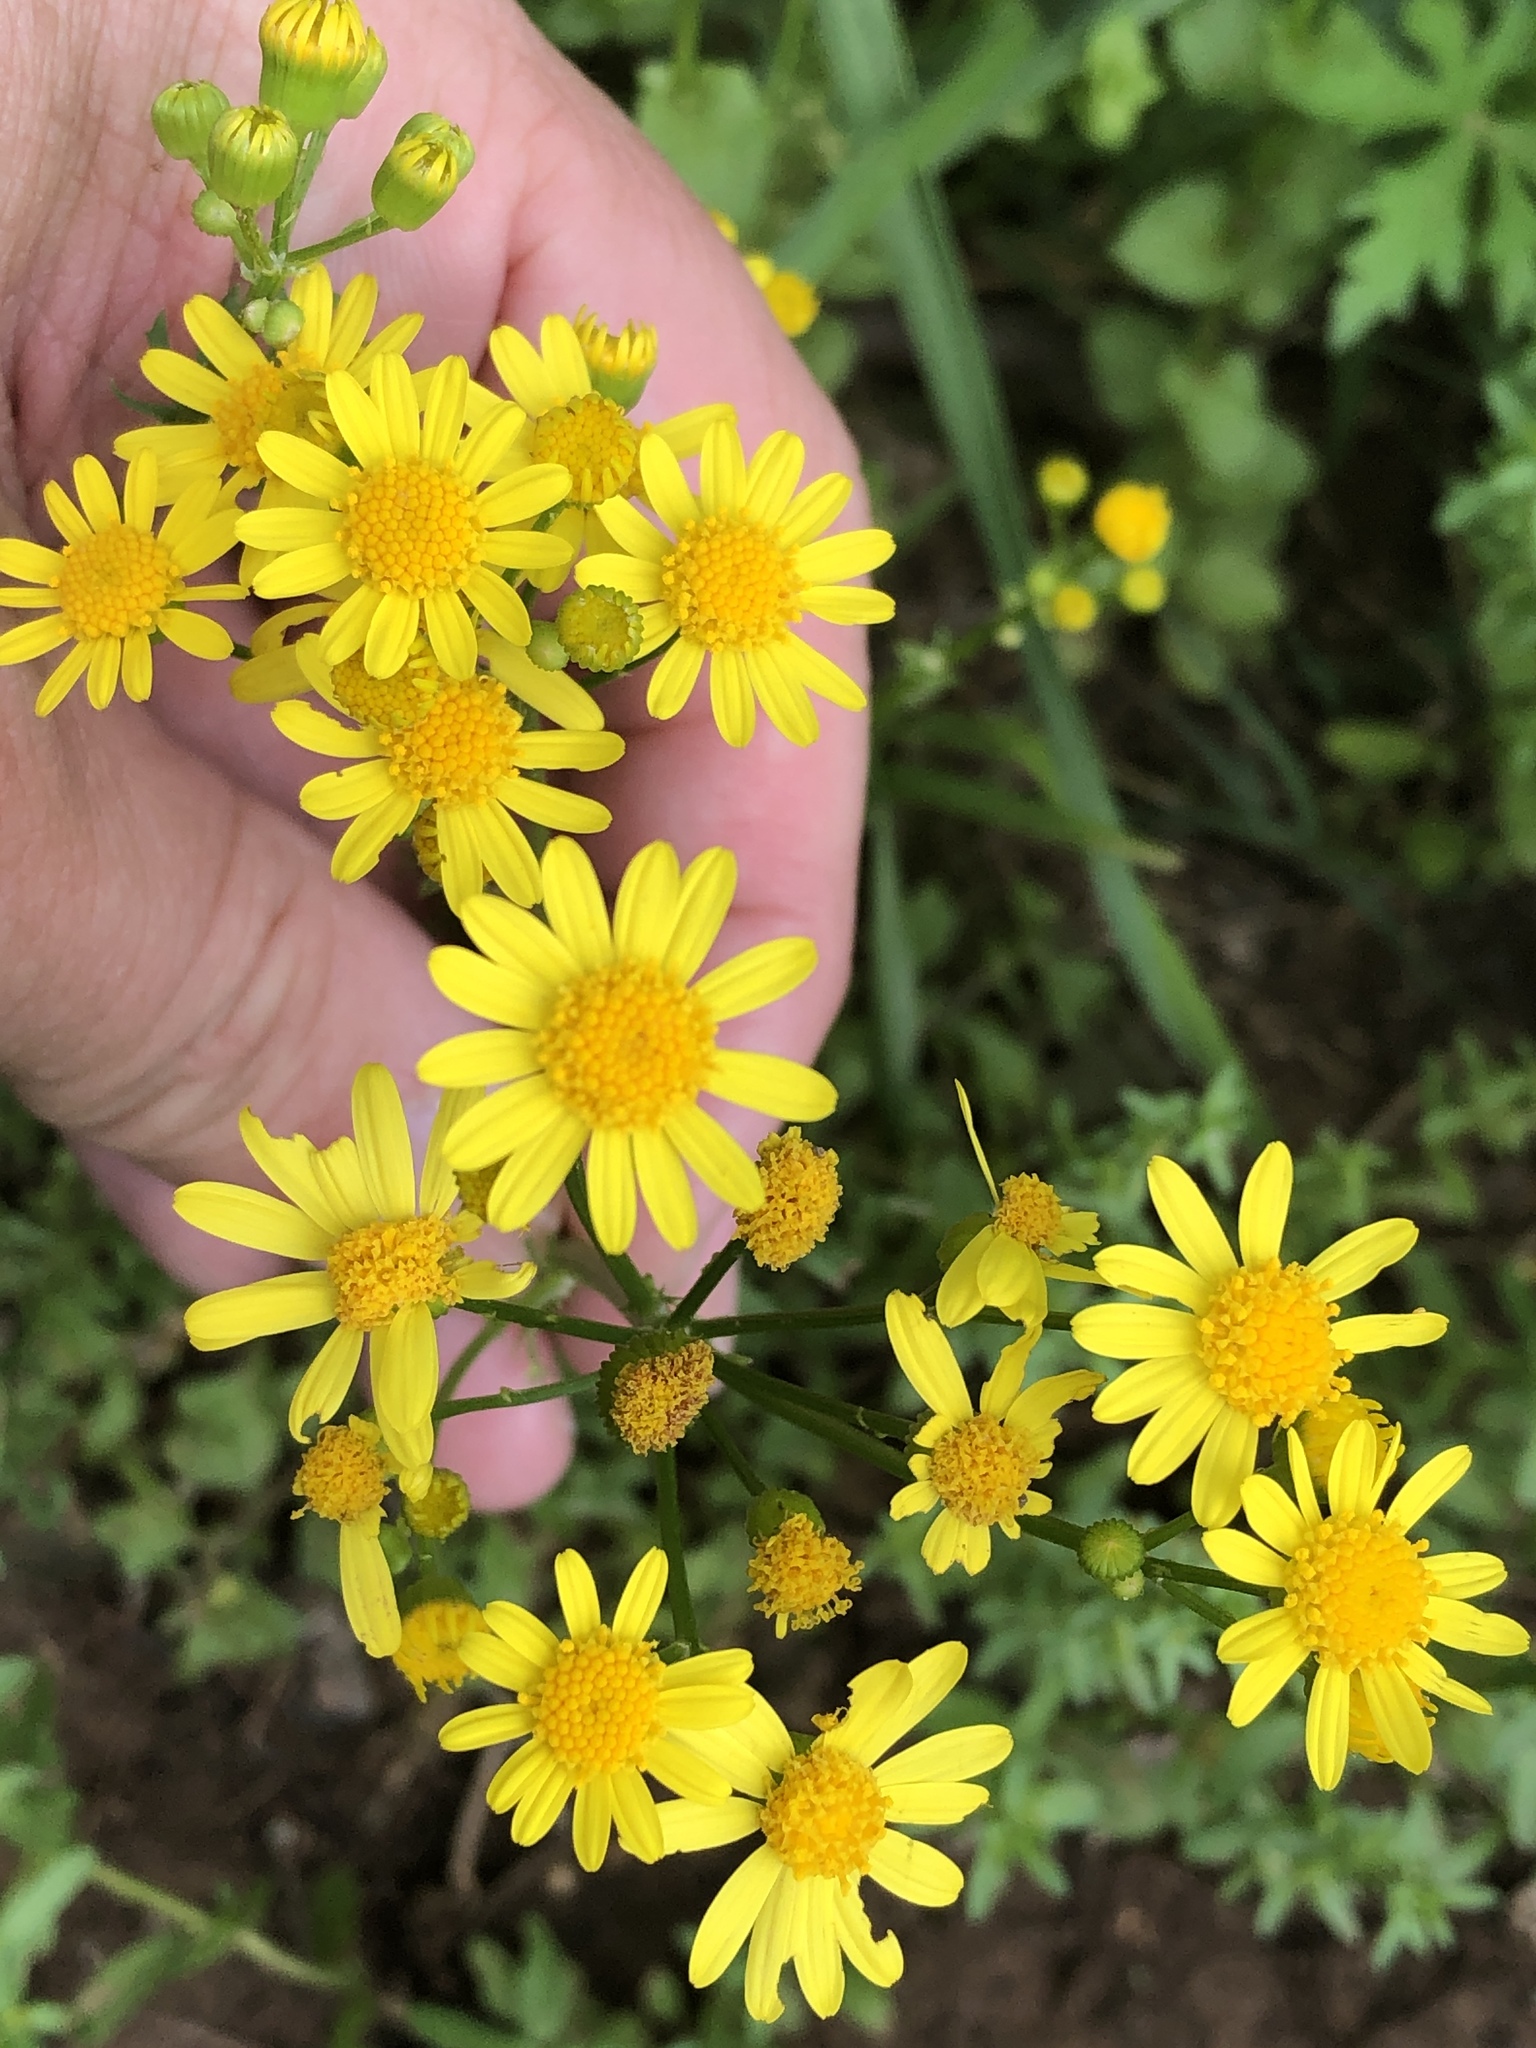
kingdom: Plantae
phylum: Tracheophyta
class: Magnoliopsida
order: Asterales
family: Asteraceae
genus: Packera
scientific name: Packera tampicana
